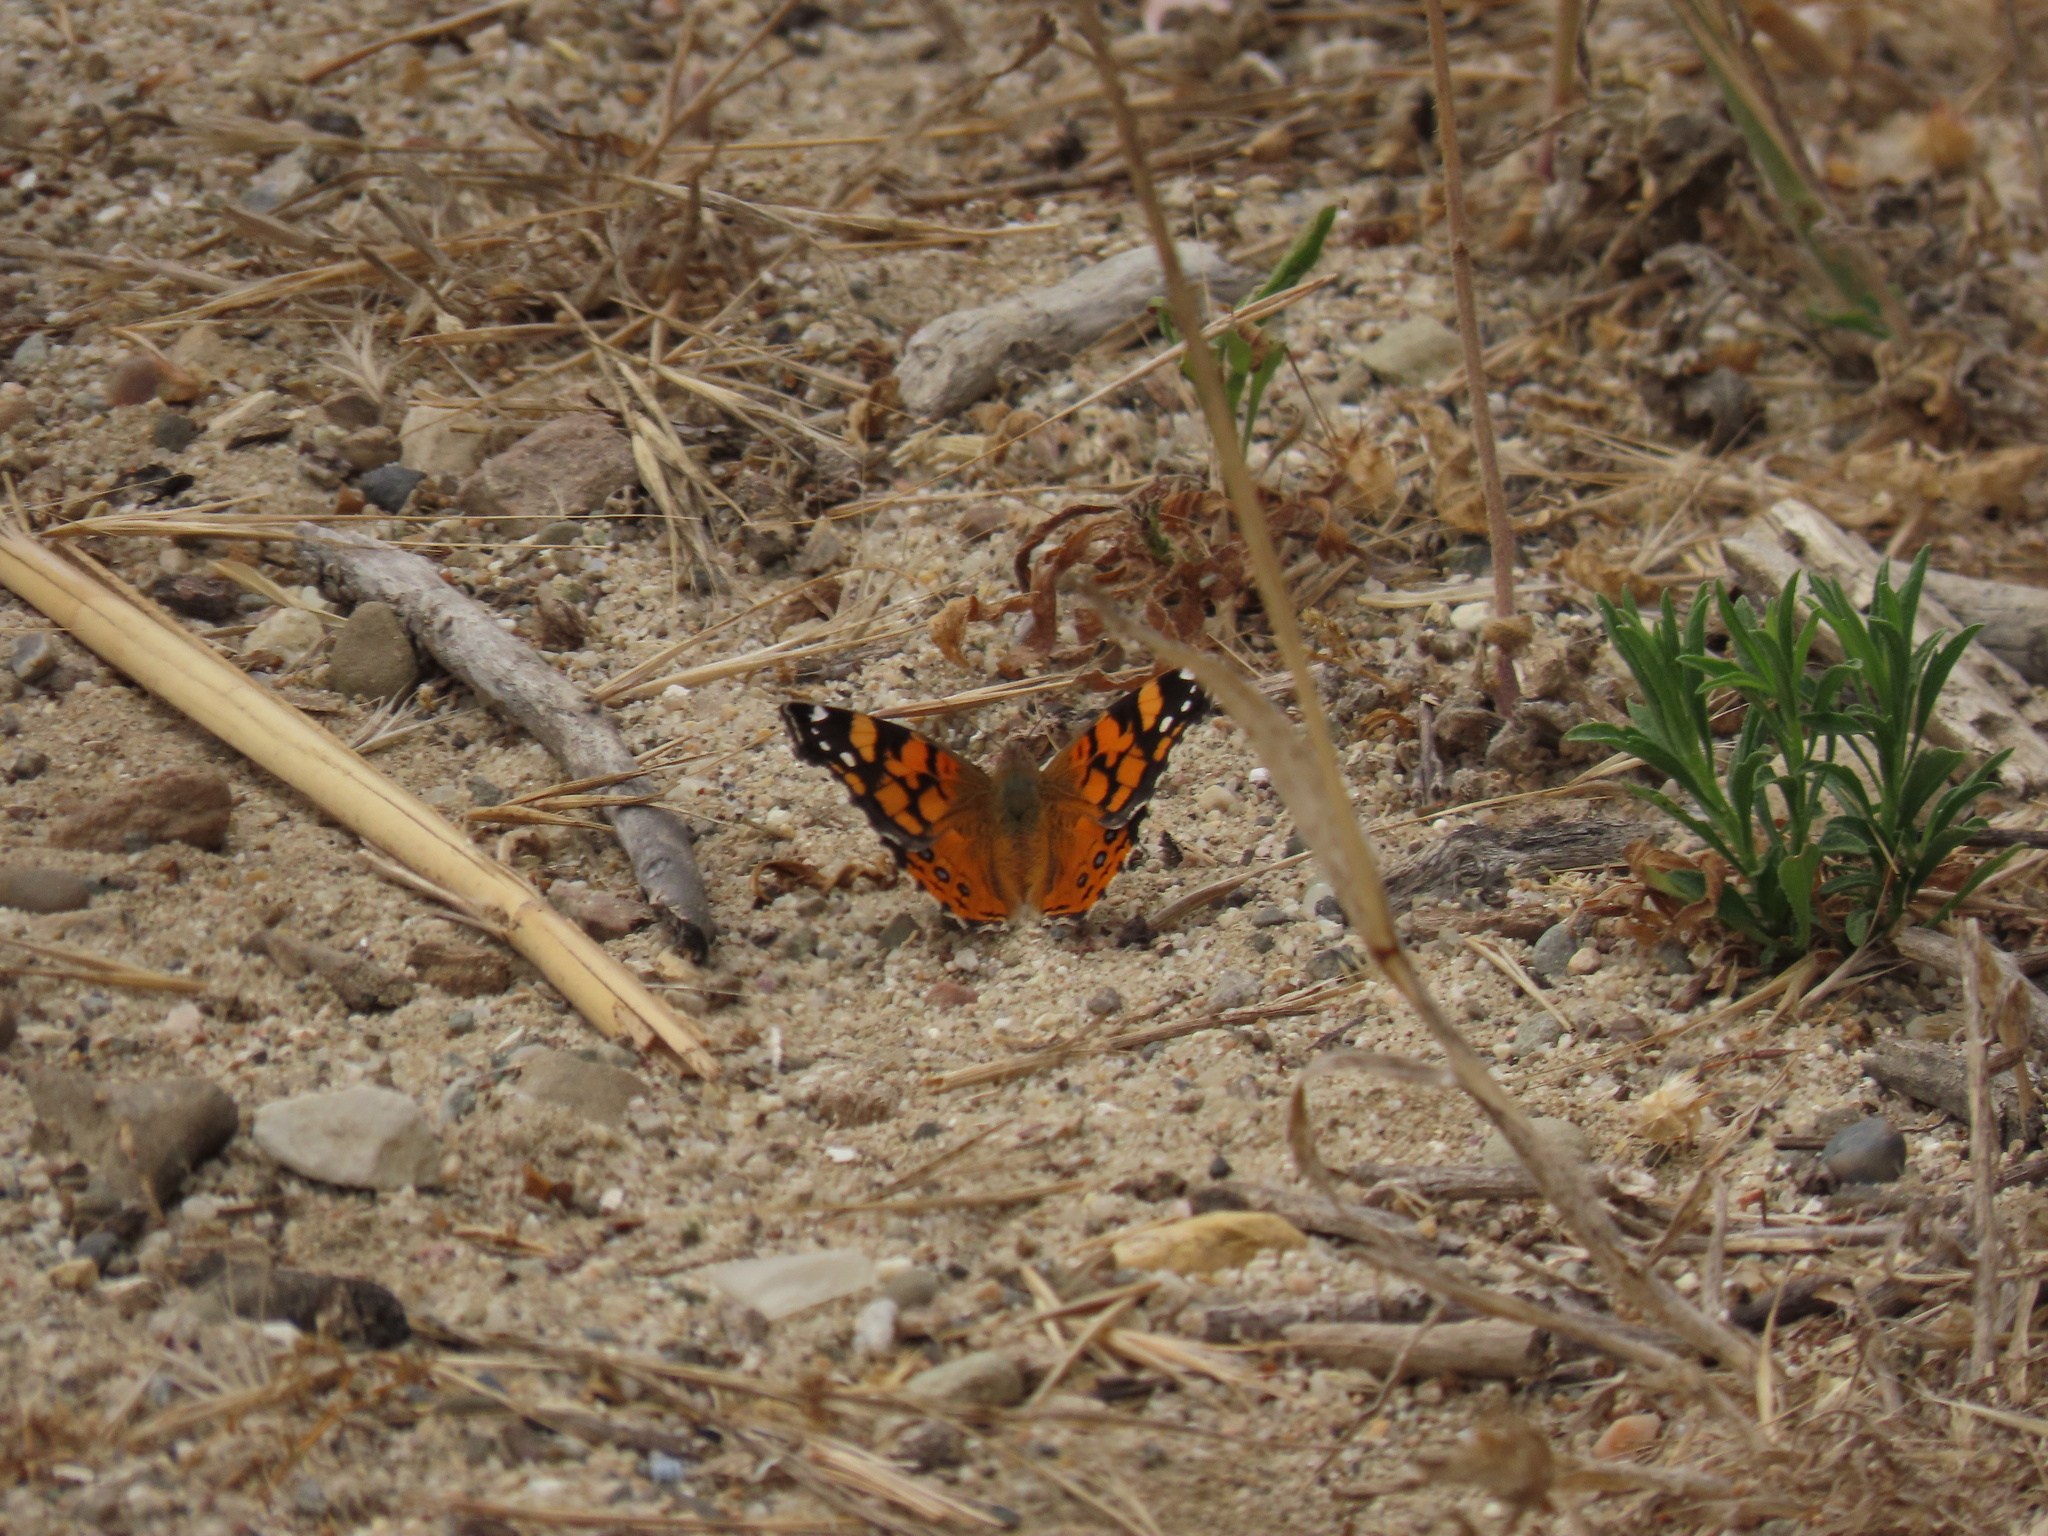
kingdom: Animalia
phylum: Arthropoda
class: Insecta
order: Lepidoptera
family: Nymphalidae
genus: Vanessa
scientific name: Vanessa annabella
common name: West coast lady
